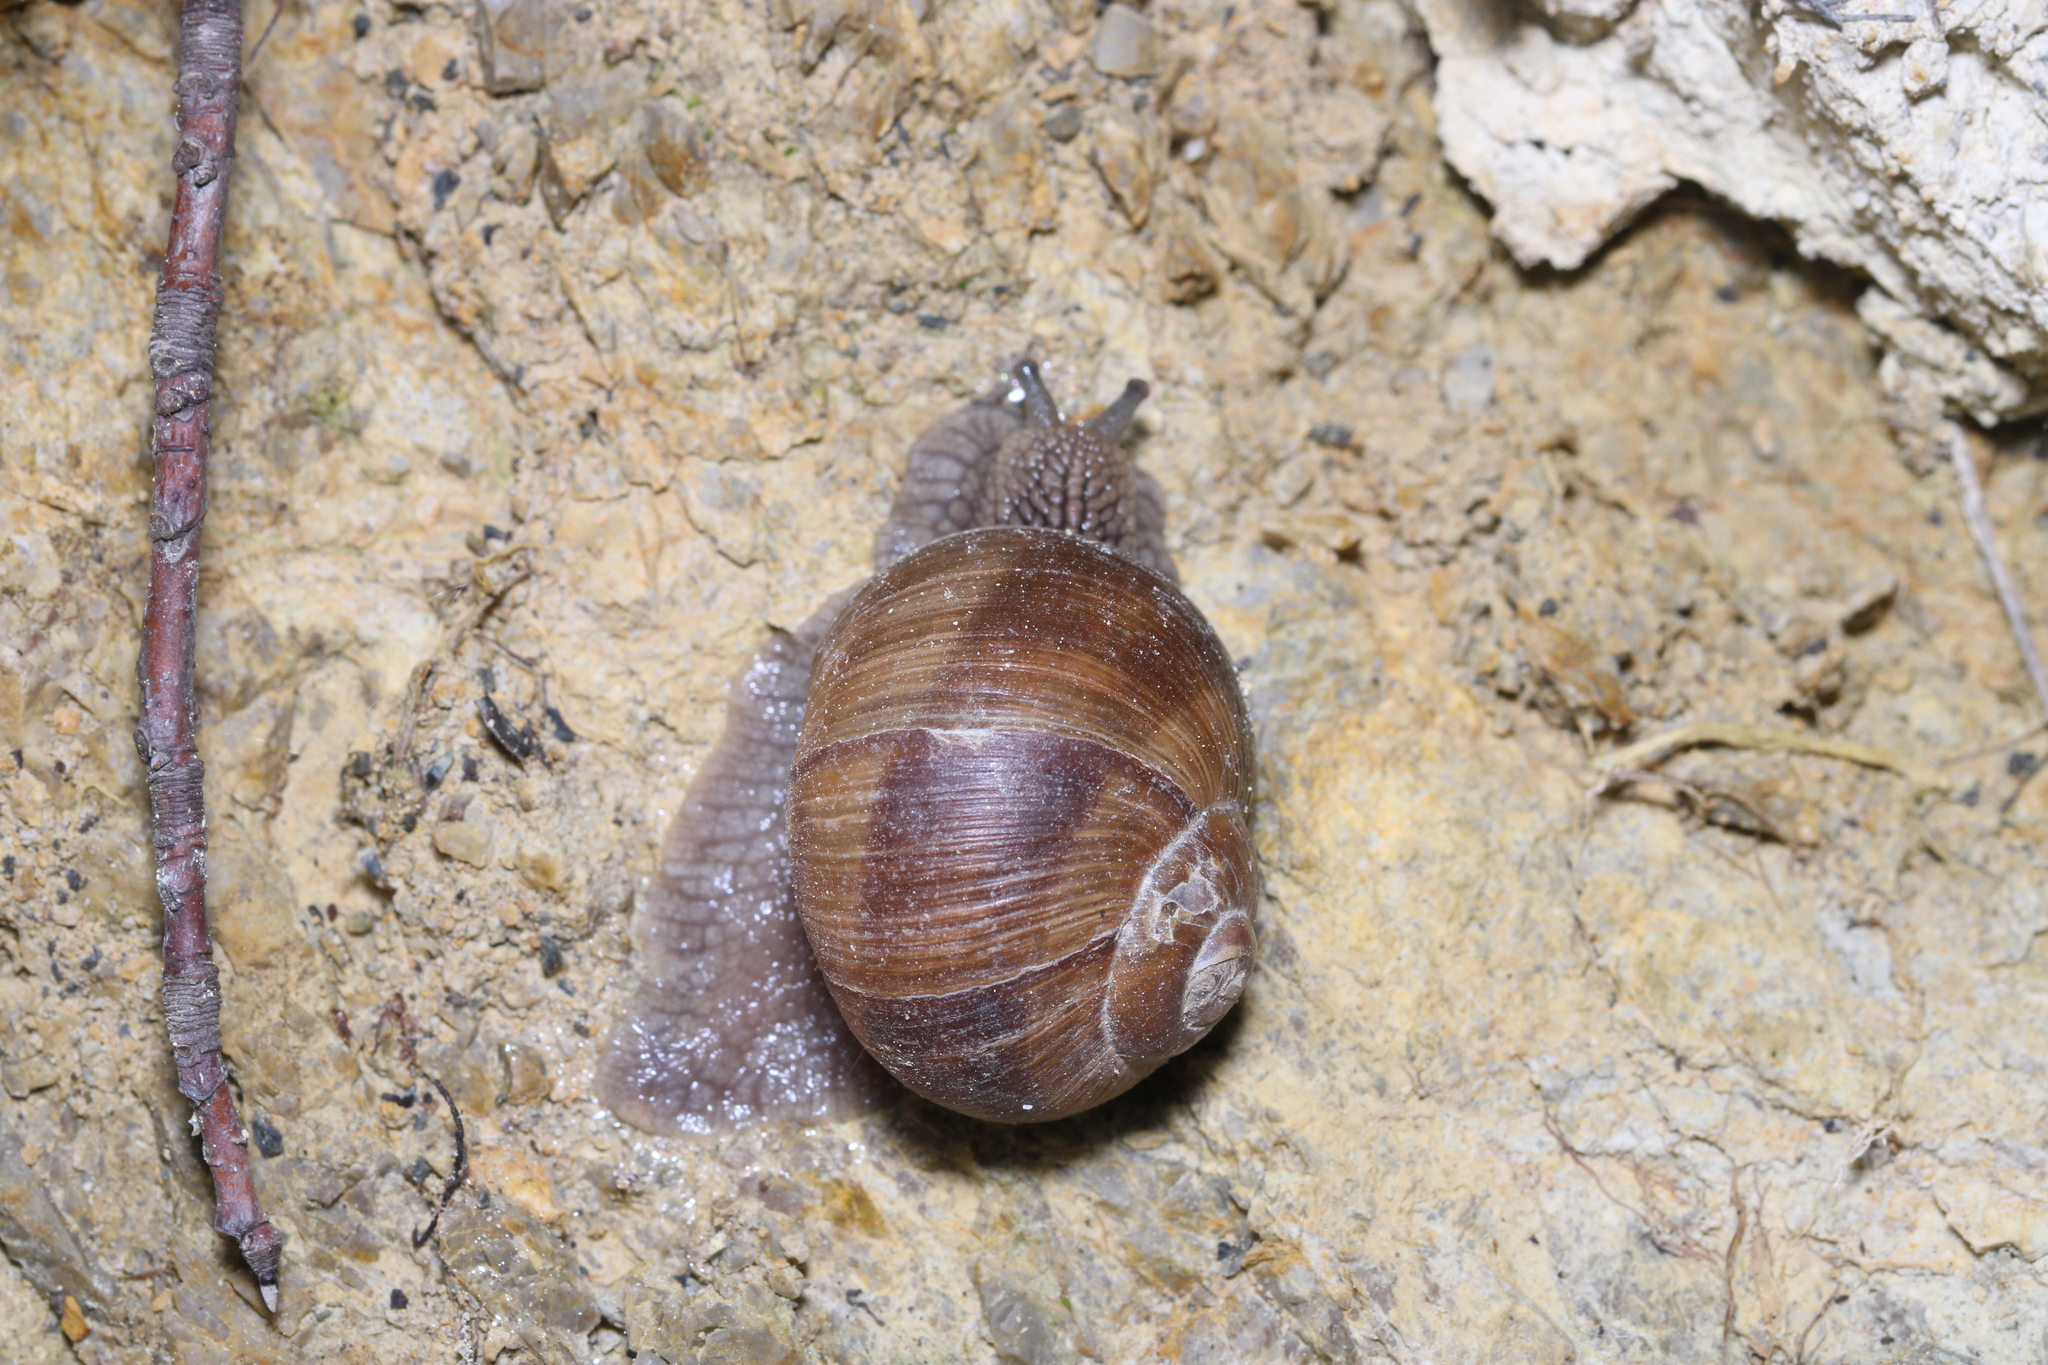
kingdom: Animalia
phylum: Mollusca
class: Gastropoda
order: Stylommatophora
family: Helicidae
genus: Helix
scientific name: Helix pomatia
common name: Roman snail
